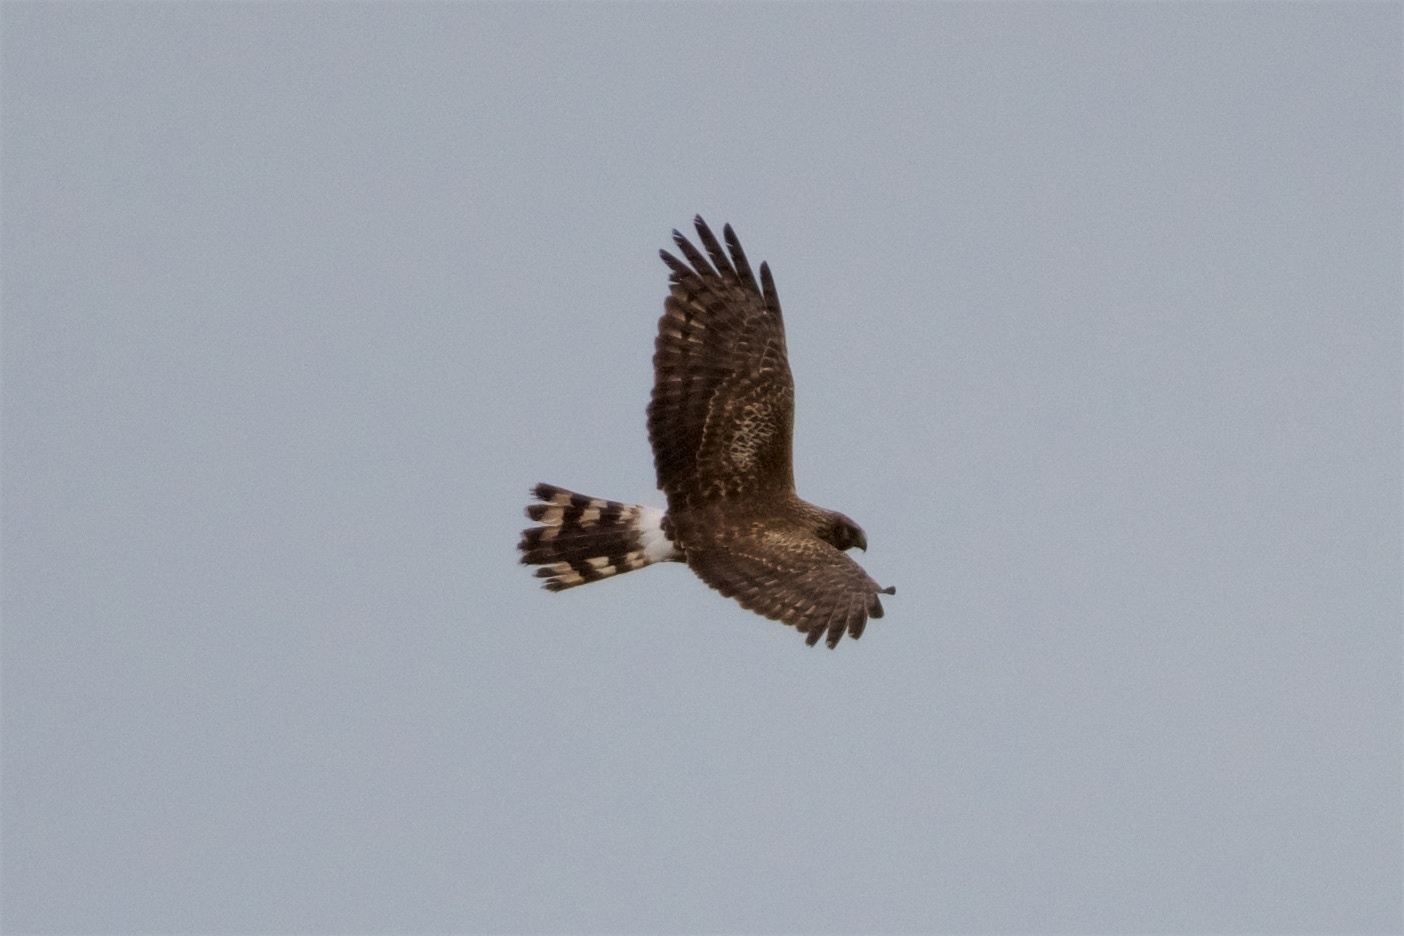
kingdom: Animalia
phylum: Chordata
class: Aves
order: Accipitriformes
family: Accipitridae
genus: Circus
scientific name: Circus cyaneus
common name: Hen harrier
